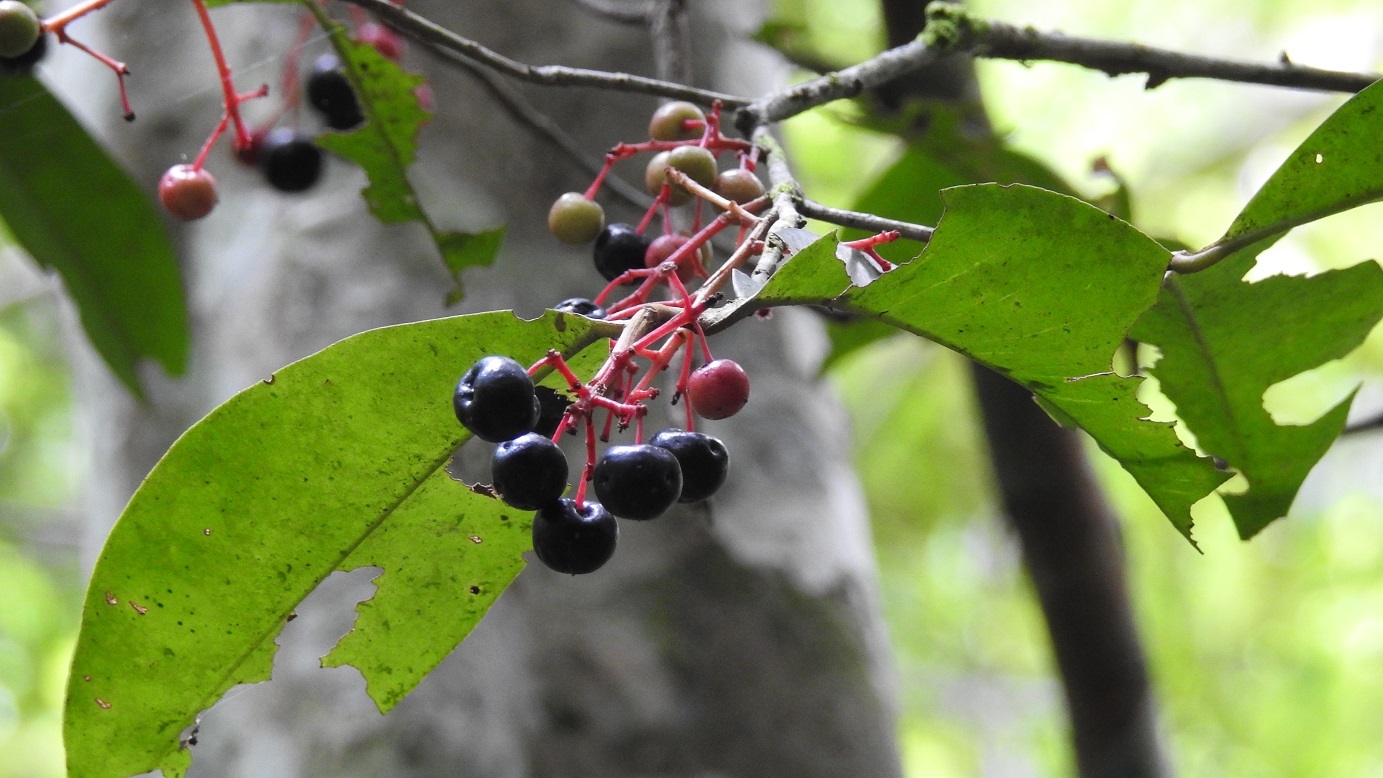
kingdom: Plantae
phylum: Tracheophyta
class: Magnoliopsida
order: Ericales
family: Primulaceae
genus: Gentlea
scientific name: Gentlea micranthera
